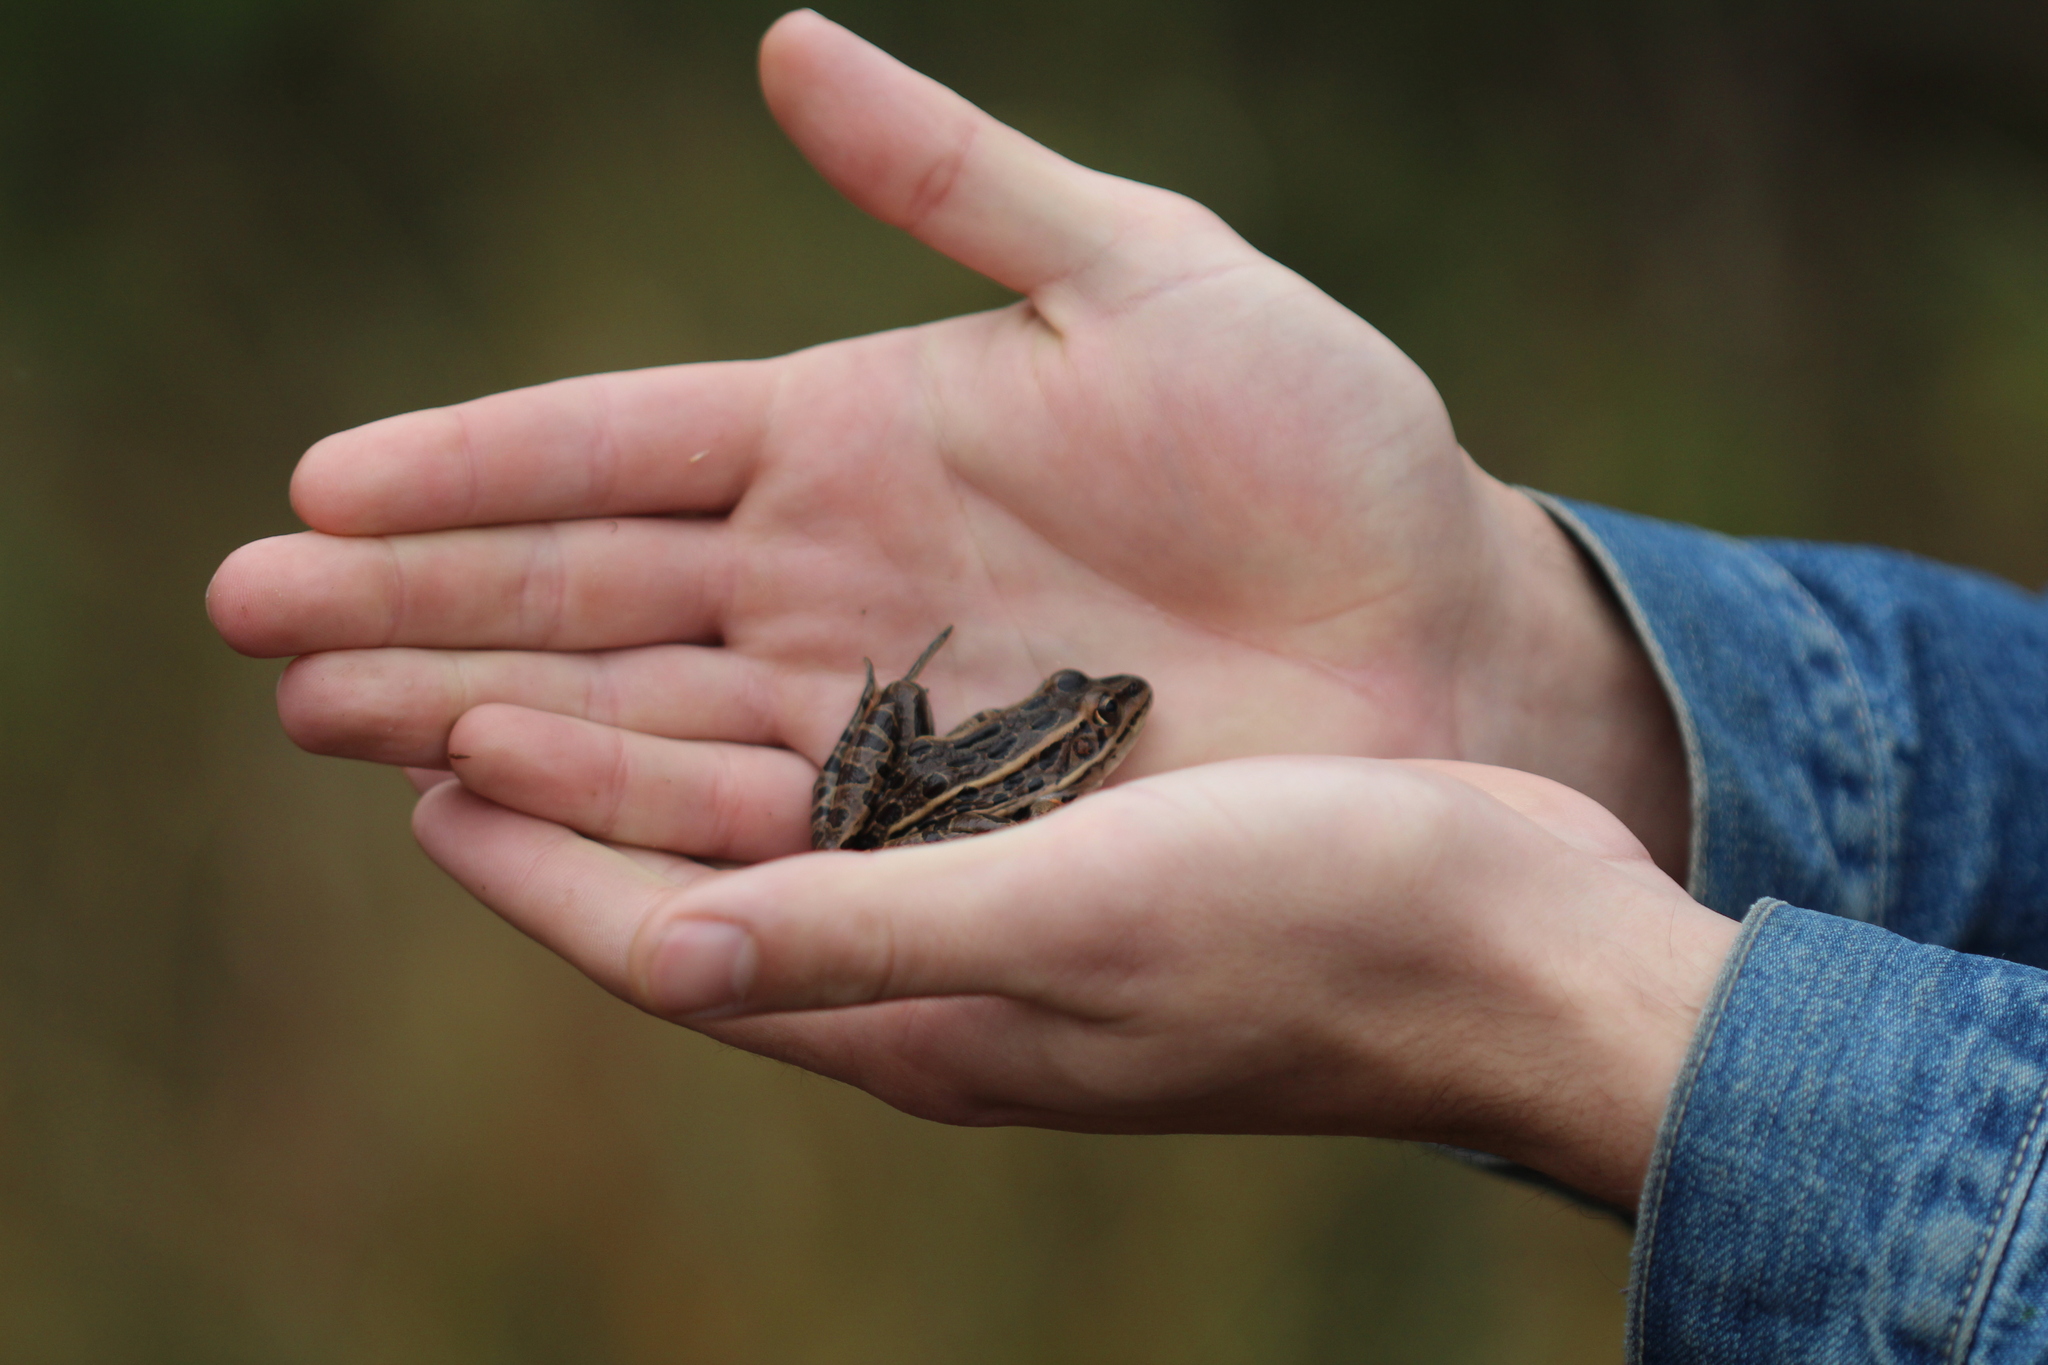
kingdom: Animalia
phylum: Chordata
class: Amphibia
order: Anura
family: Ranidae
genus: Lithobates
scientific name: Lithobates pipiens
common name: Northern leopard frog
